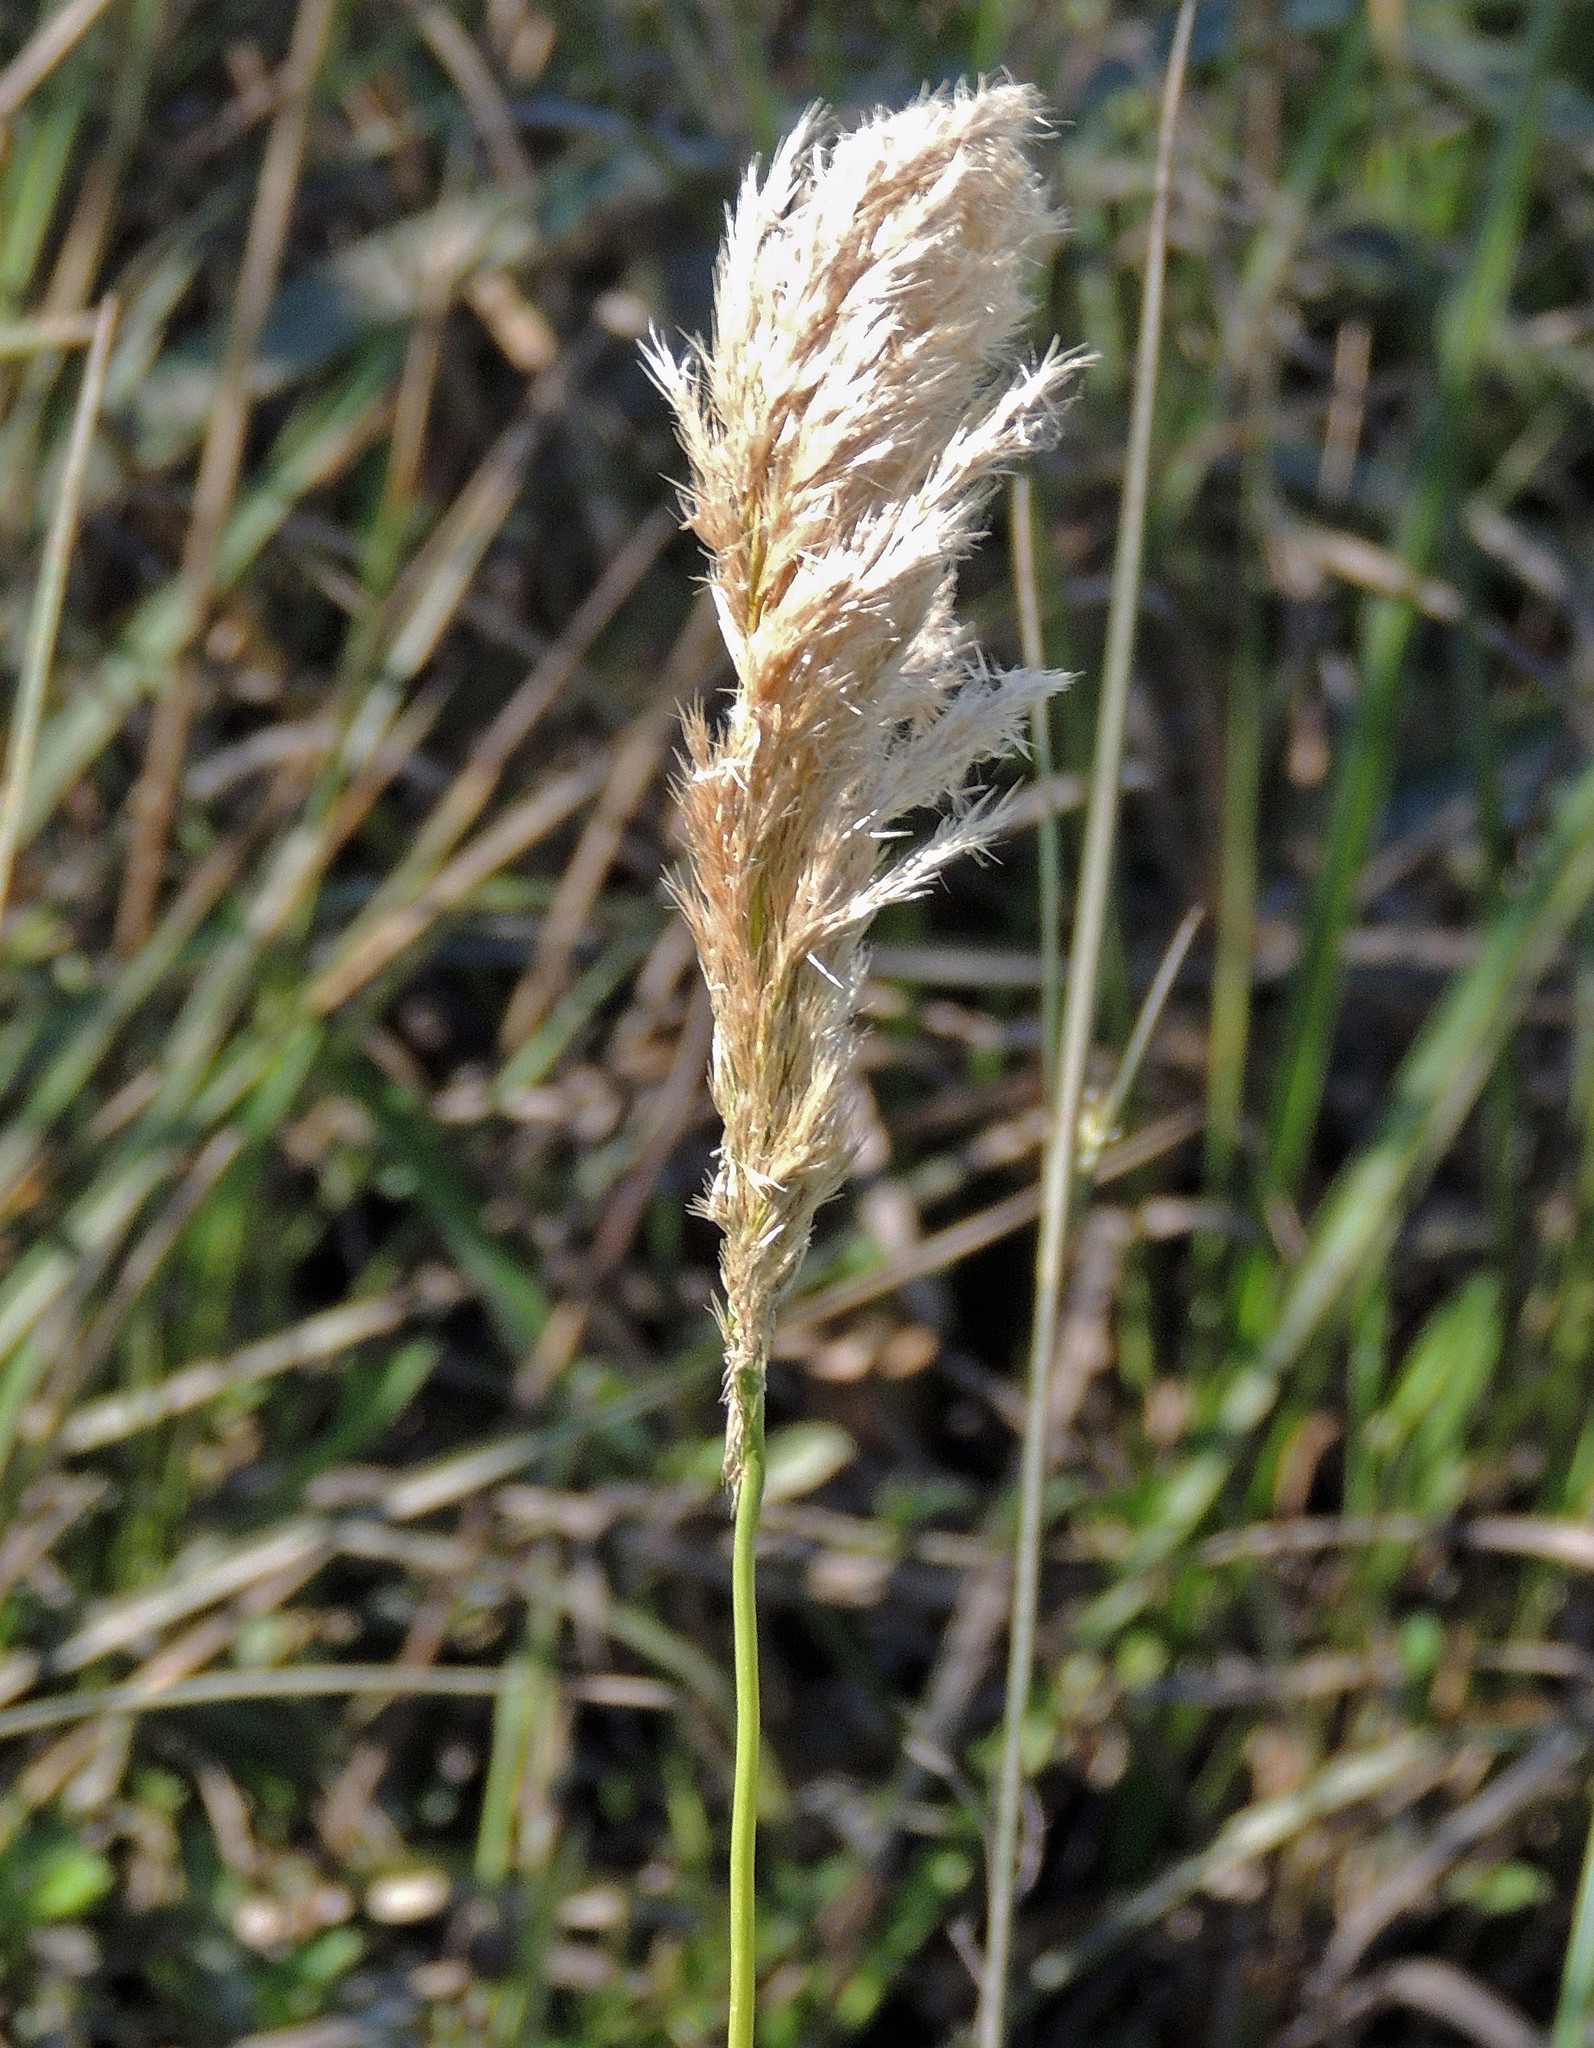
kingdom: Plantae
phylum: Tracheophyta
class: Liliopsida
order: Poales
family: Poaceae
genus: Cinnagrostis
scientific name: Cinnagrostis viridiflavescens
